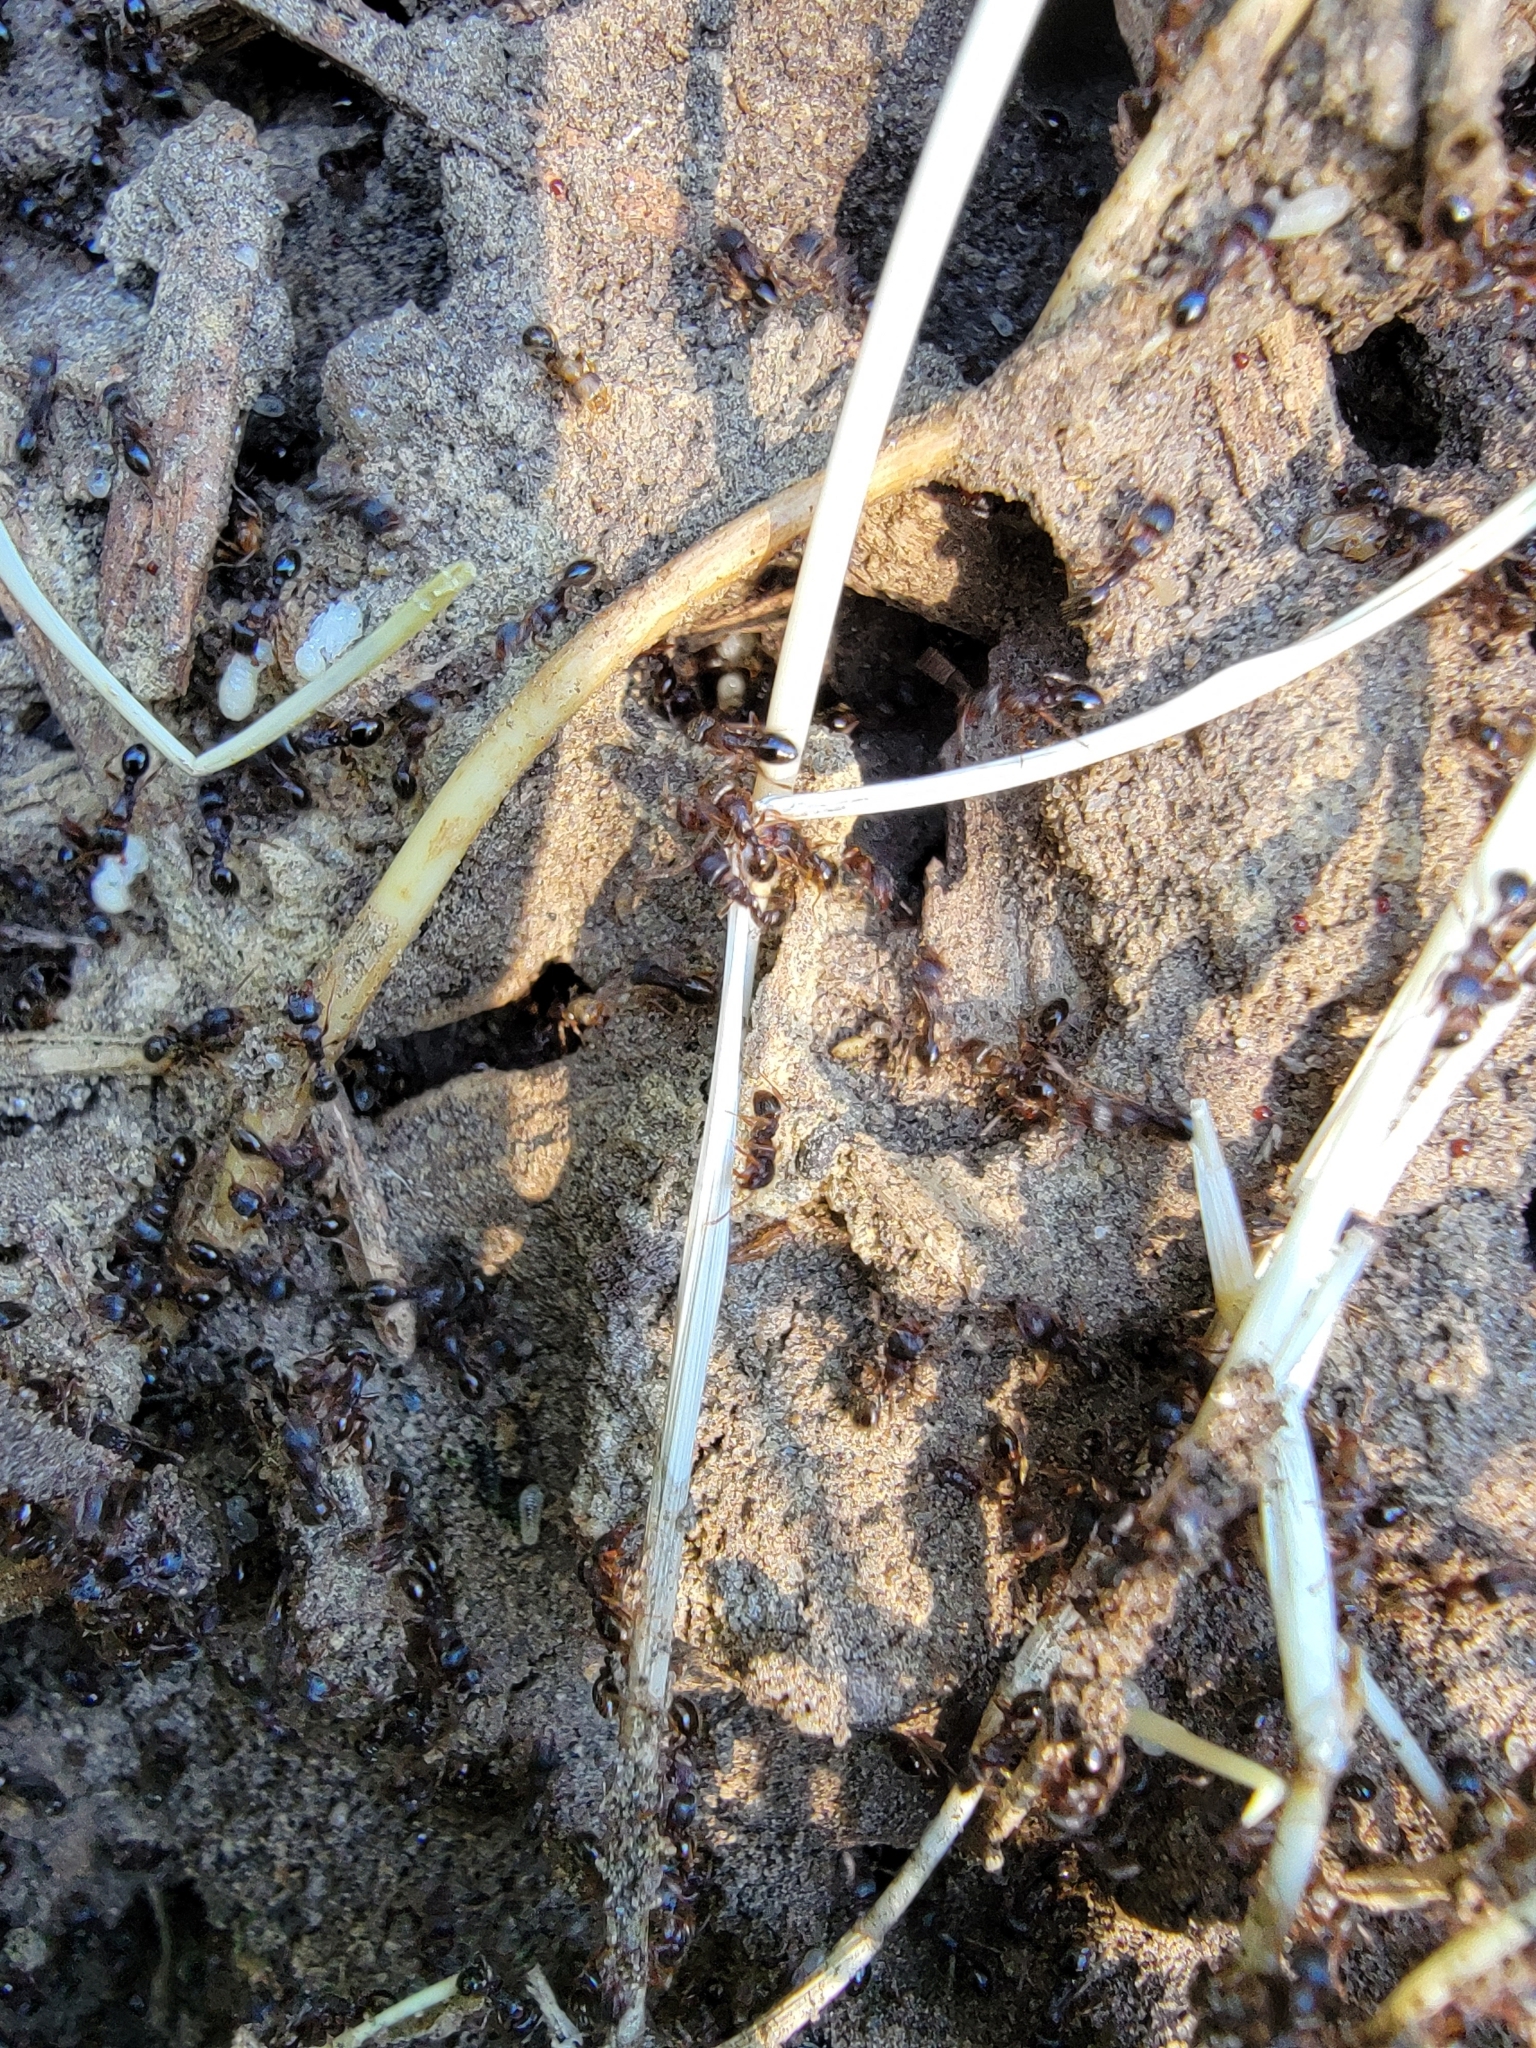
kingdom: Animalia
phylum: Arthropoda
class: Insecta
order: Hymenoptera
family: Formicidae
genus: Tetramorium
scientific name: Tetramorium immigrans
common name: Pavement ant
